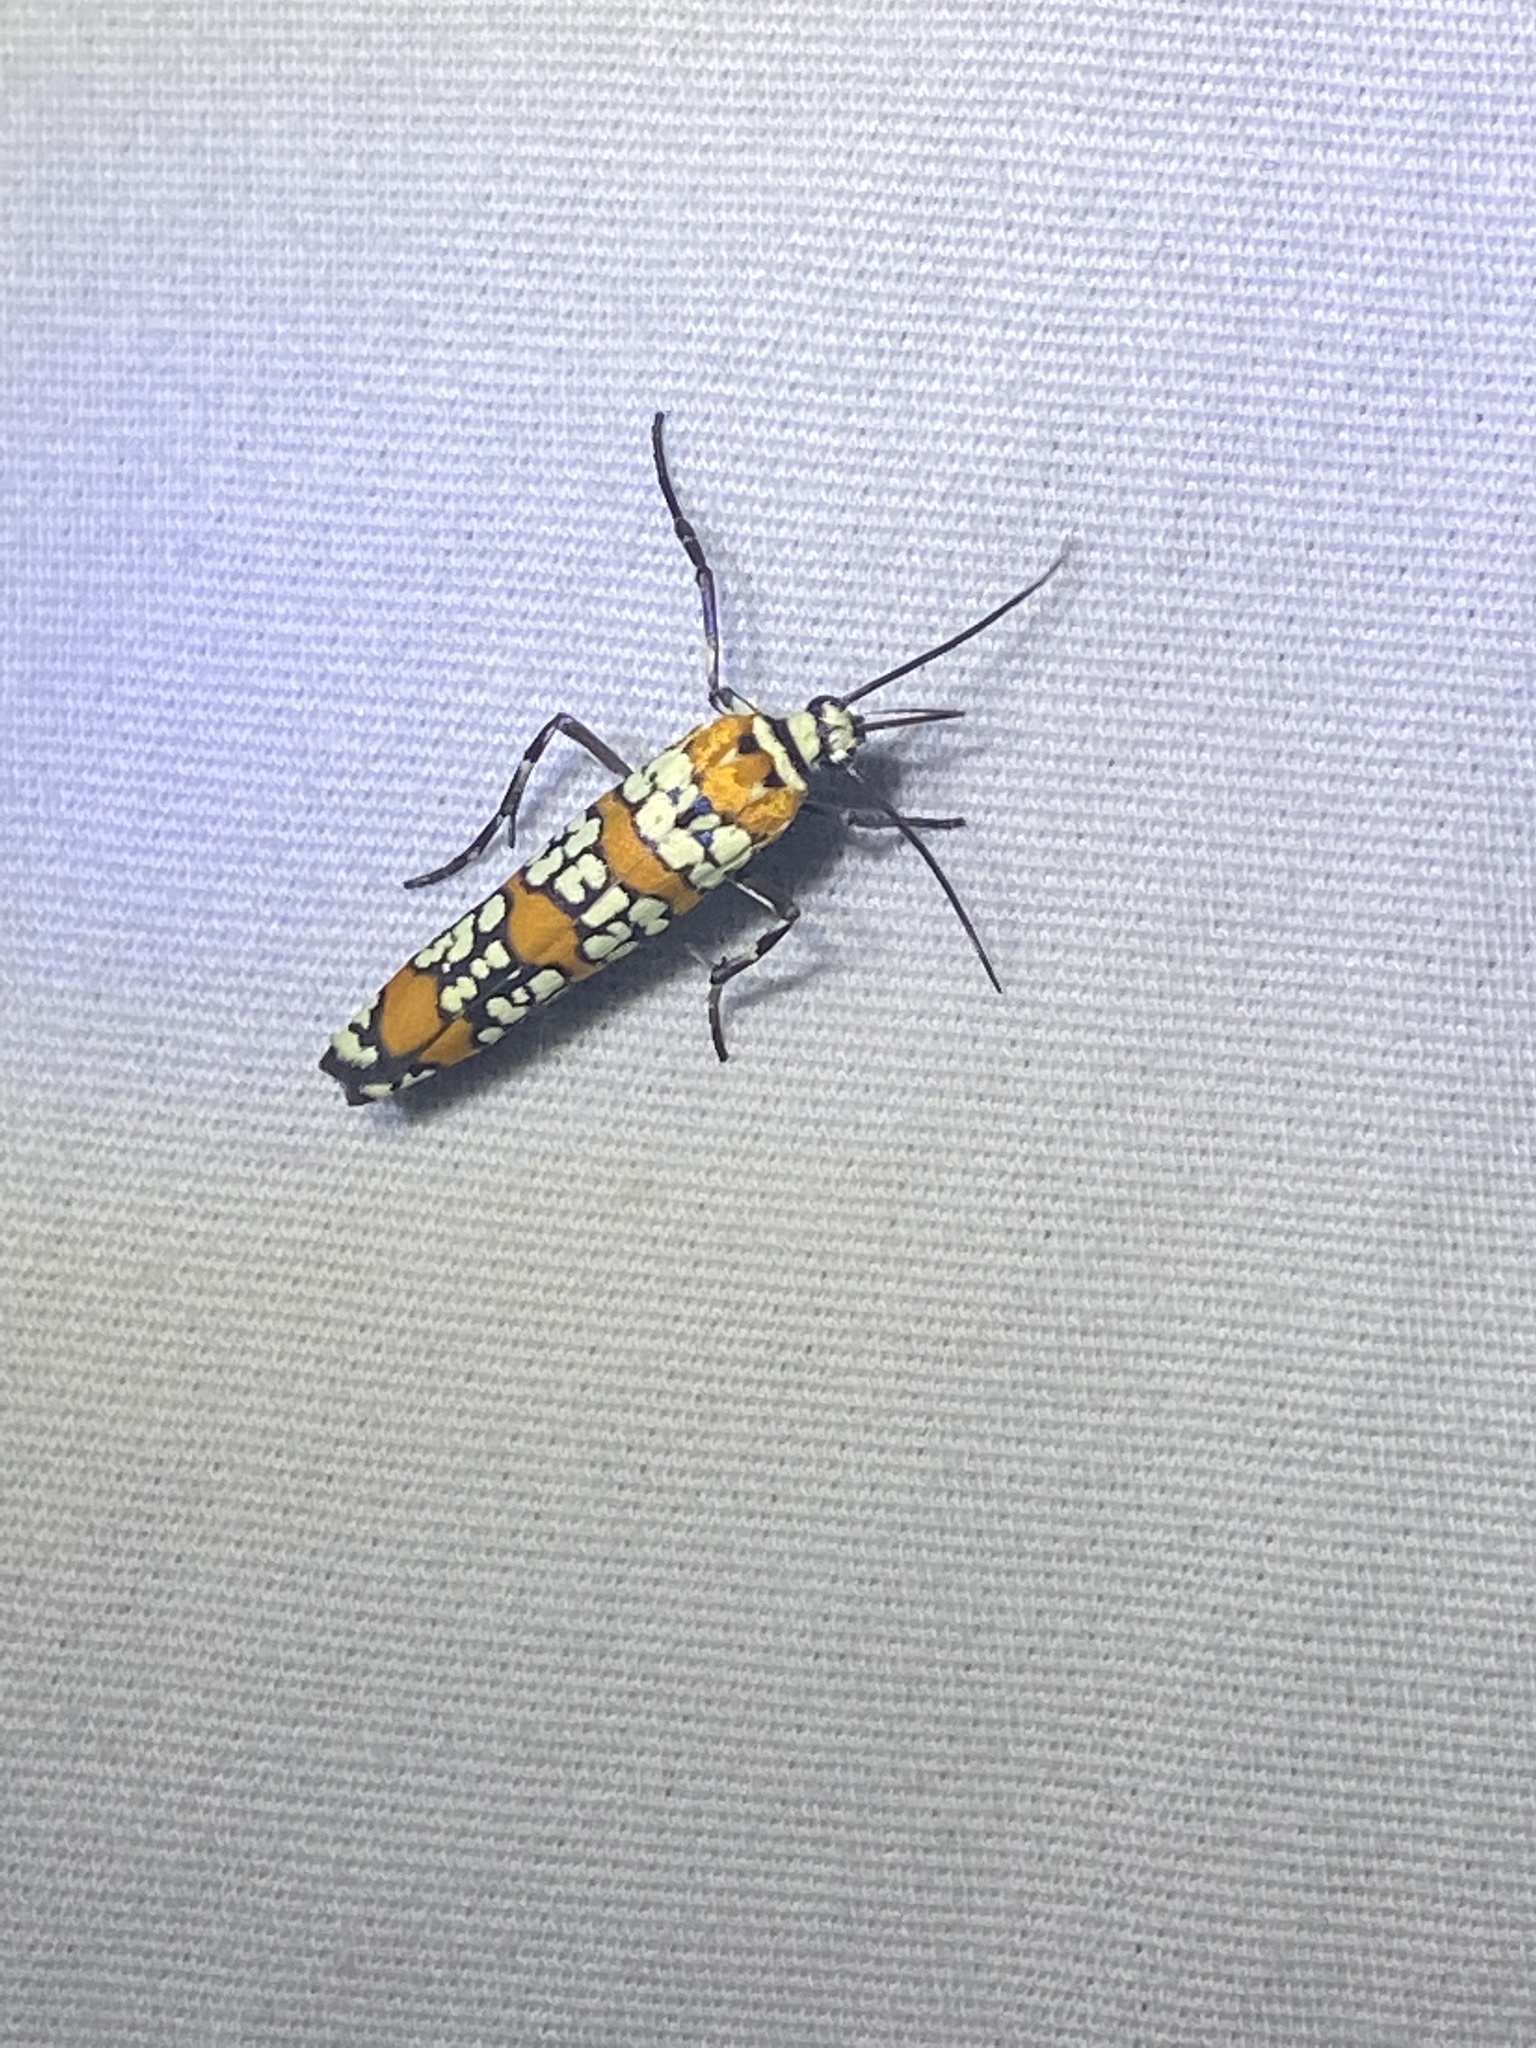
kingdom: Animalia
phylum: Arthropoda
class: Insecta
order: Lepidoptera
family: Attevidae
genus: Atteva
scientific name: Atteva punctella
